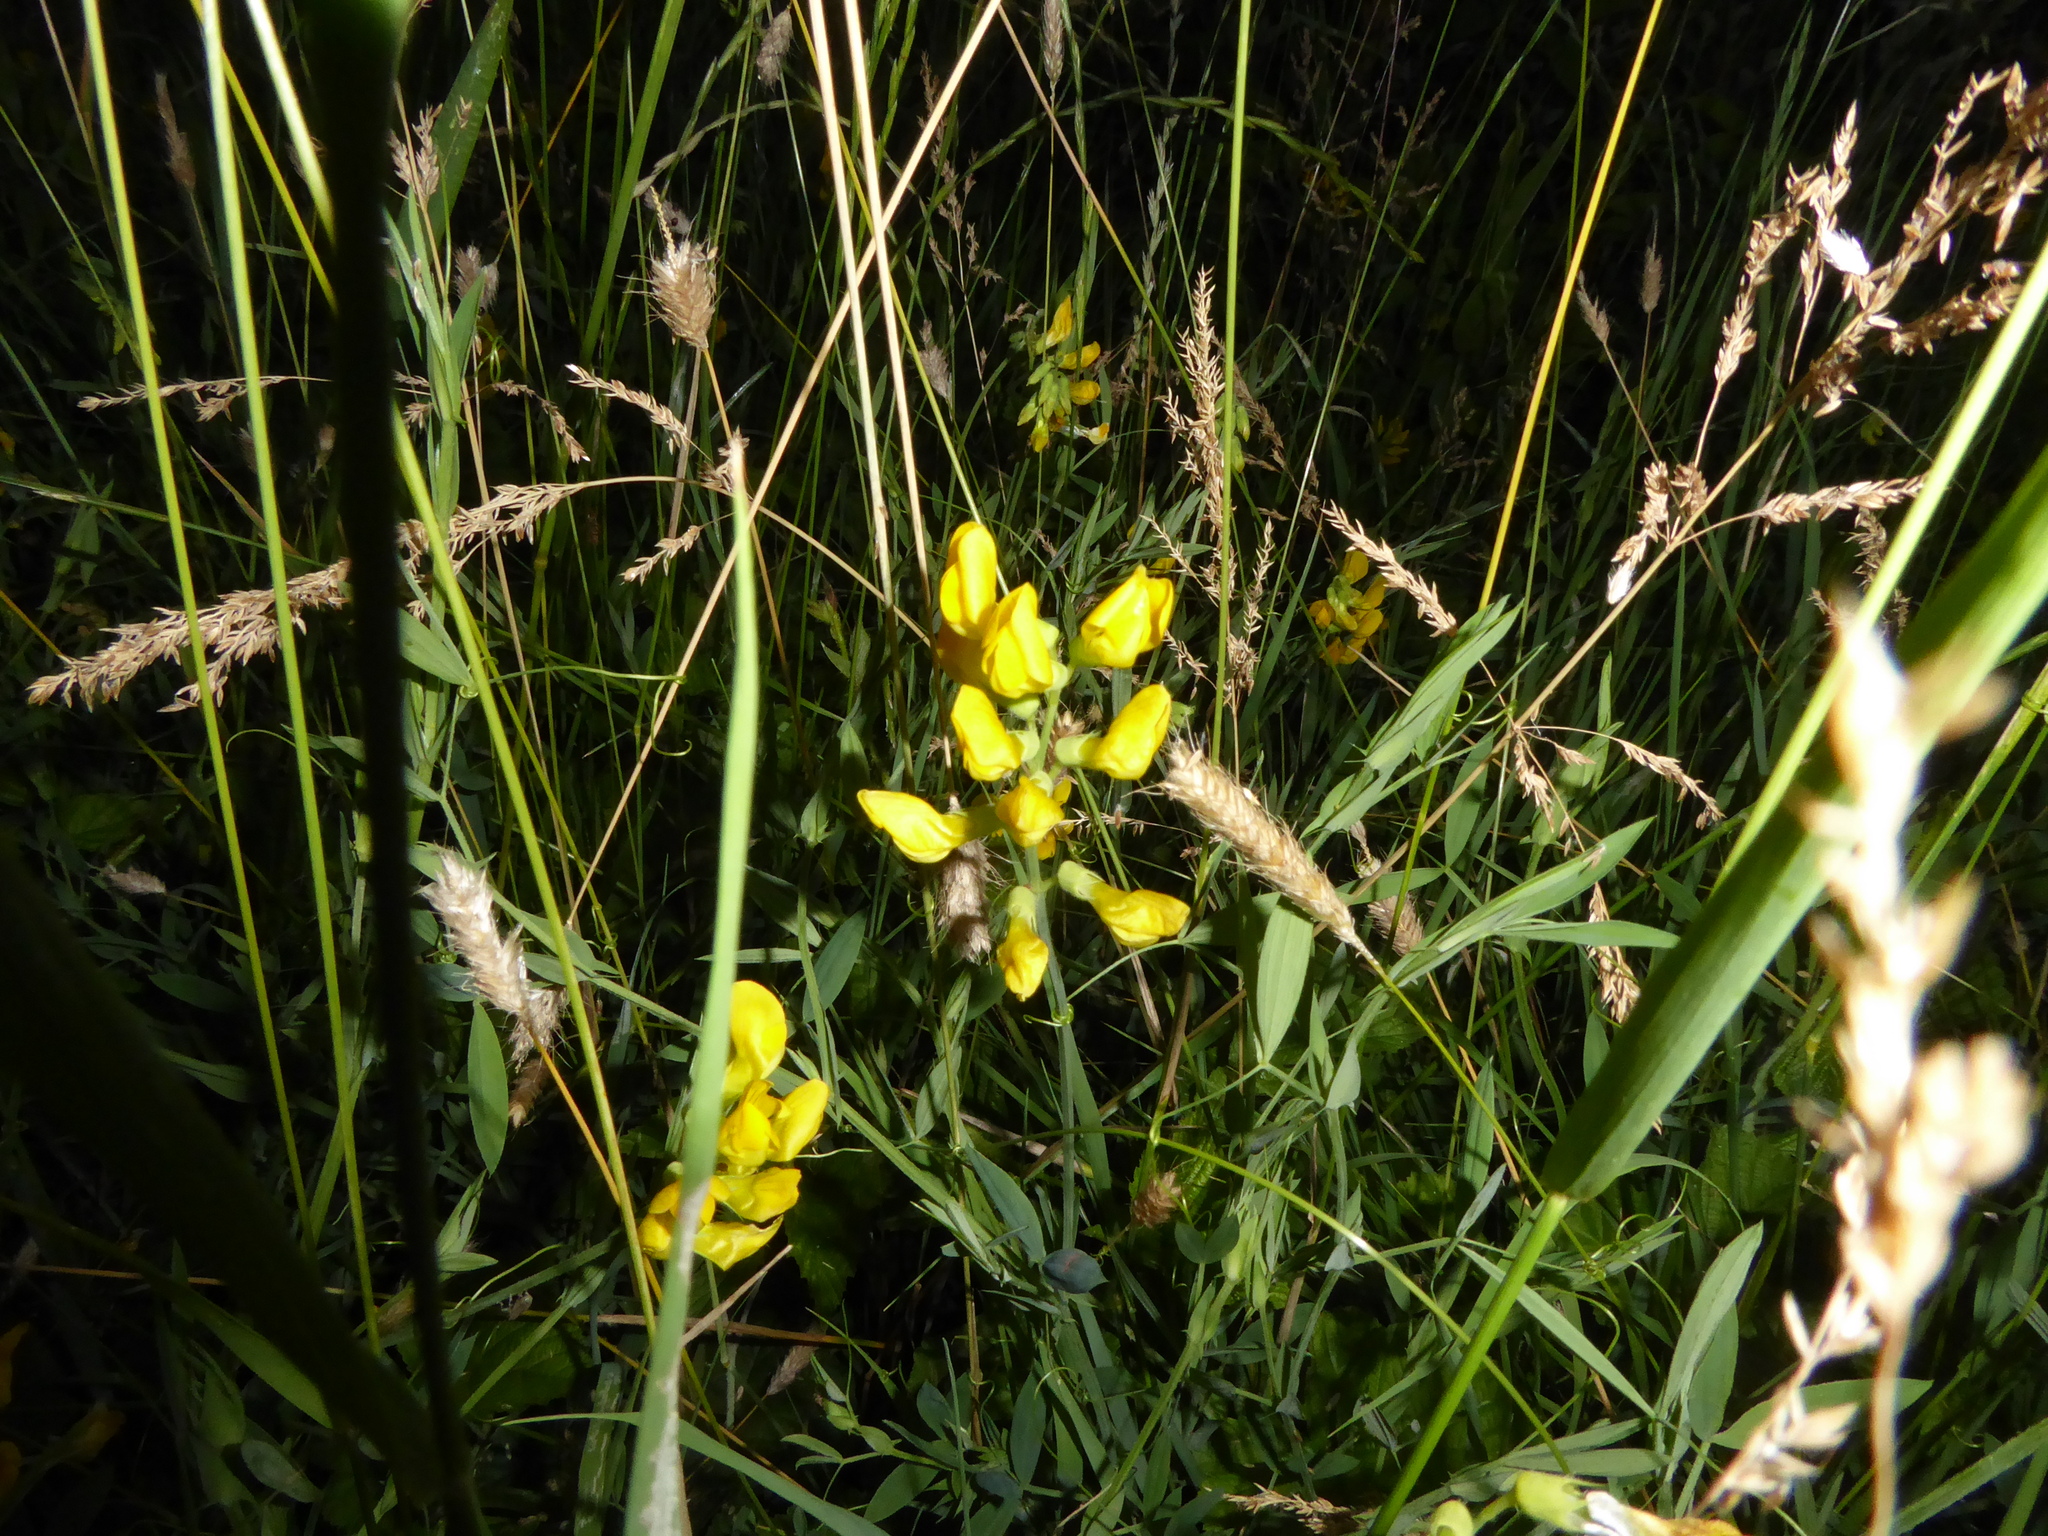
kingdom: Plantae
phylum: Tracheophyta
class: Magnoliopsida
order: Fabales
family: Fabaceae
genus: Lathyrus
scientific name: Lathyrus pratensis
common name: Meadow vetchling
